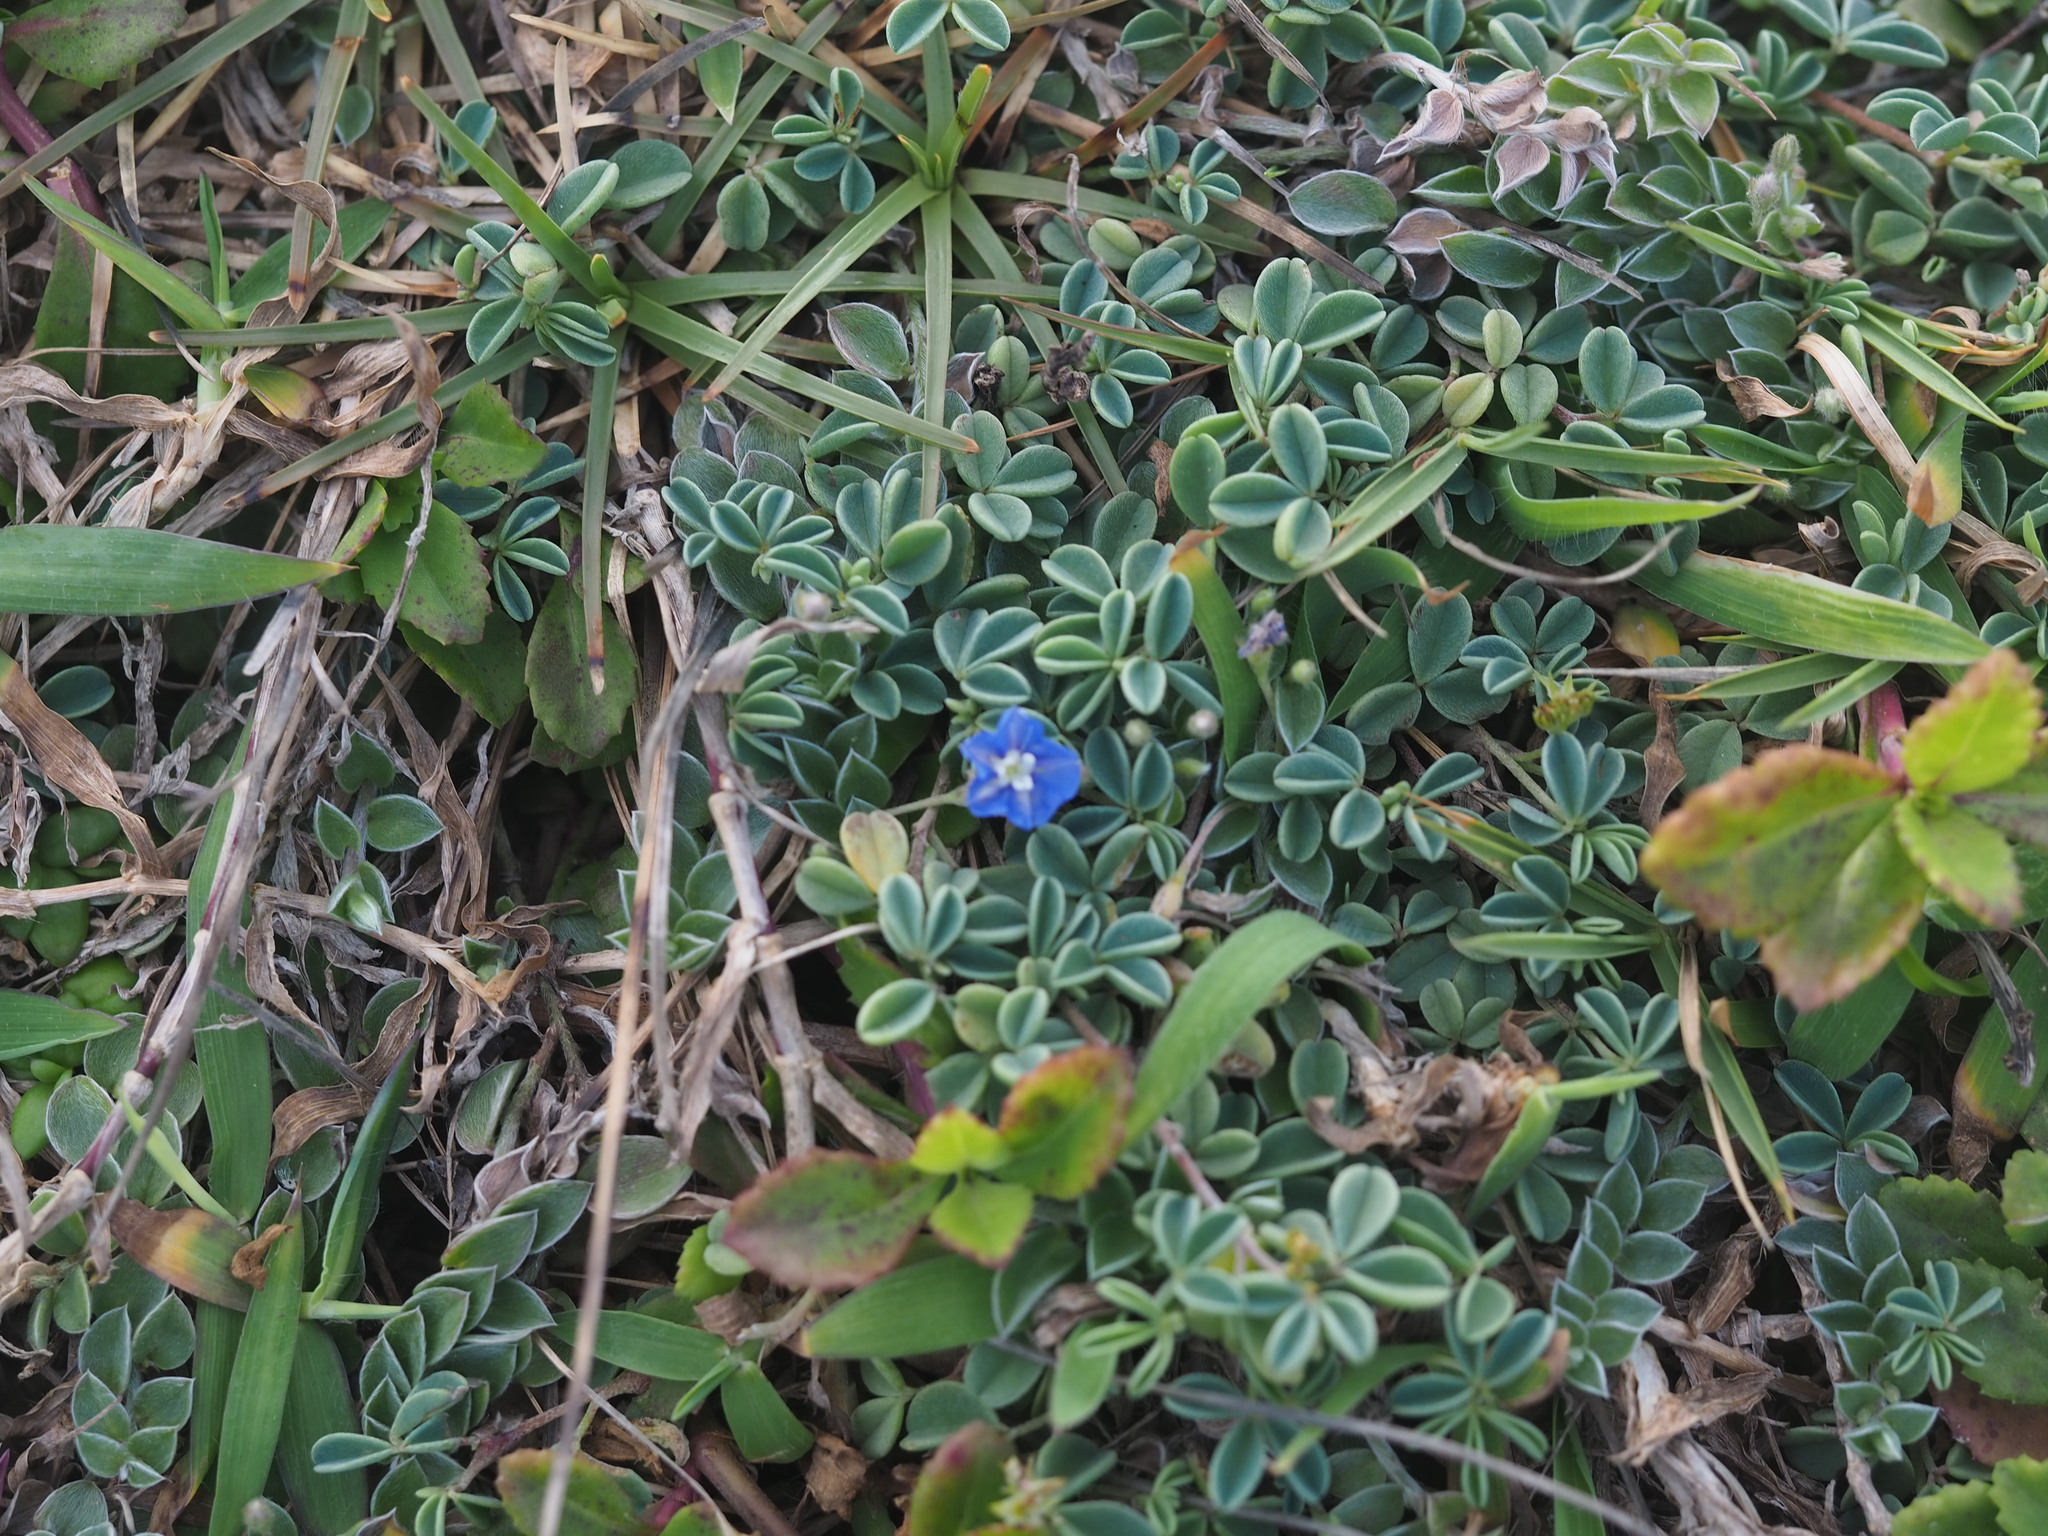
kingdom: Plantae
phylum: Tracheophyta
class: Magnoliopsida
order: Solanales
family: Convolvulaceae
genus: Evolvulus
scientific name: Evolvulus alsinoides
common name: Slender dwarf morning-glory
